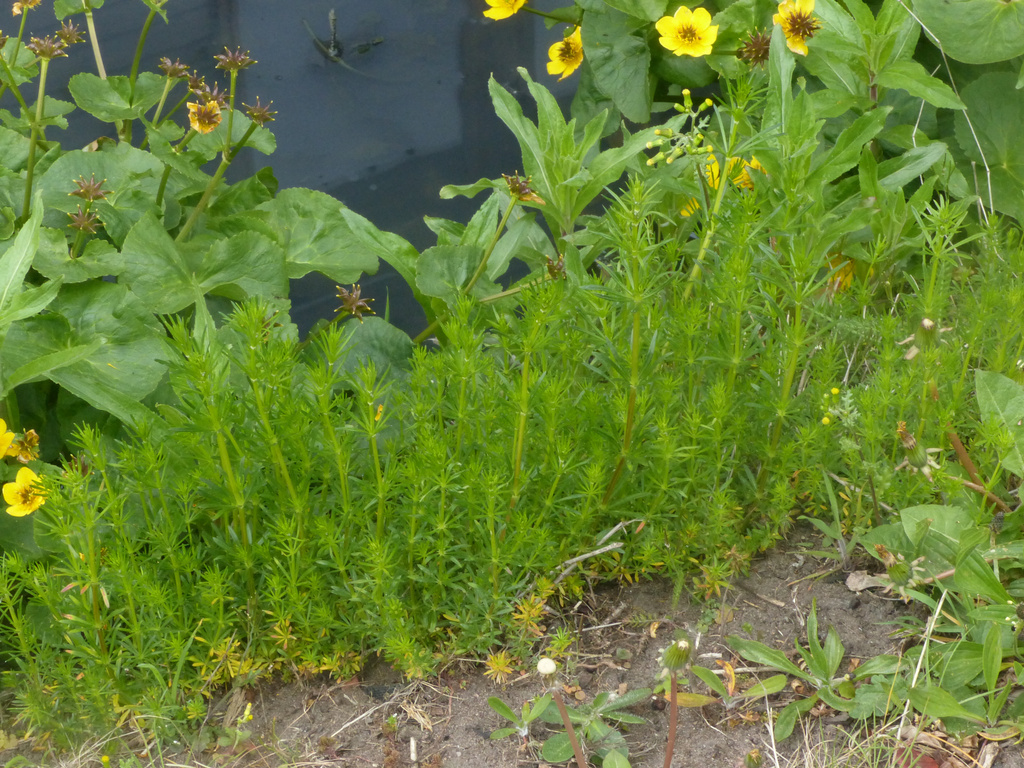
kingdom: Plantae
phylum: Tracheophyta
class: Magnoliopsida
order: Gentianales
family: Rubiaceae
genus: Galium
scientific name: Galium verum
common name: Lady's bedstraw
